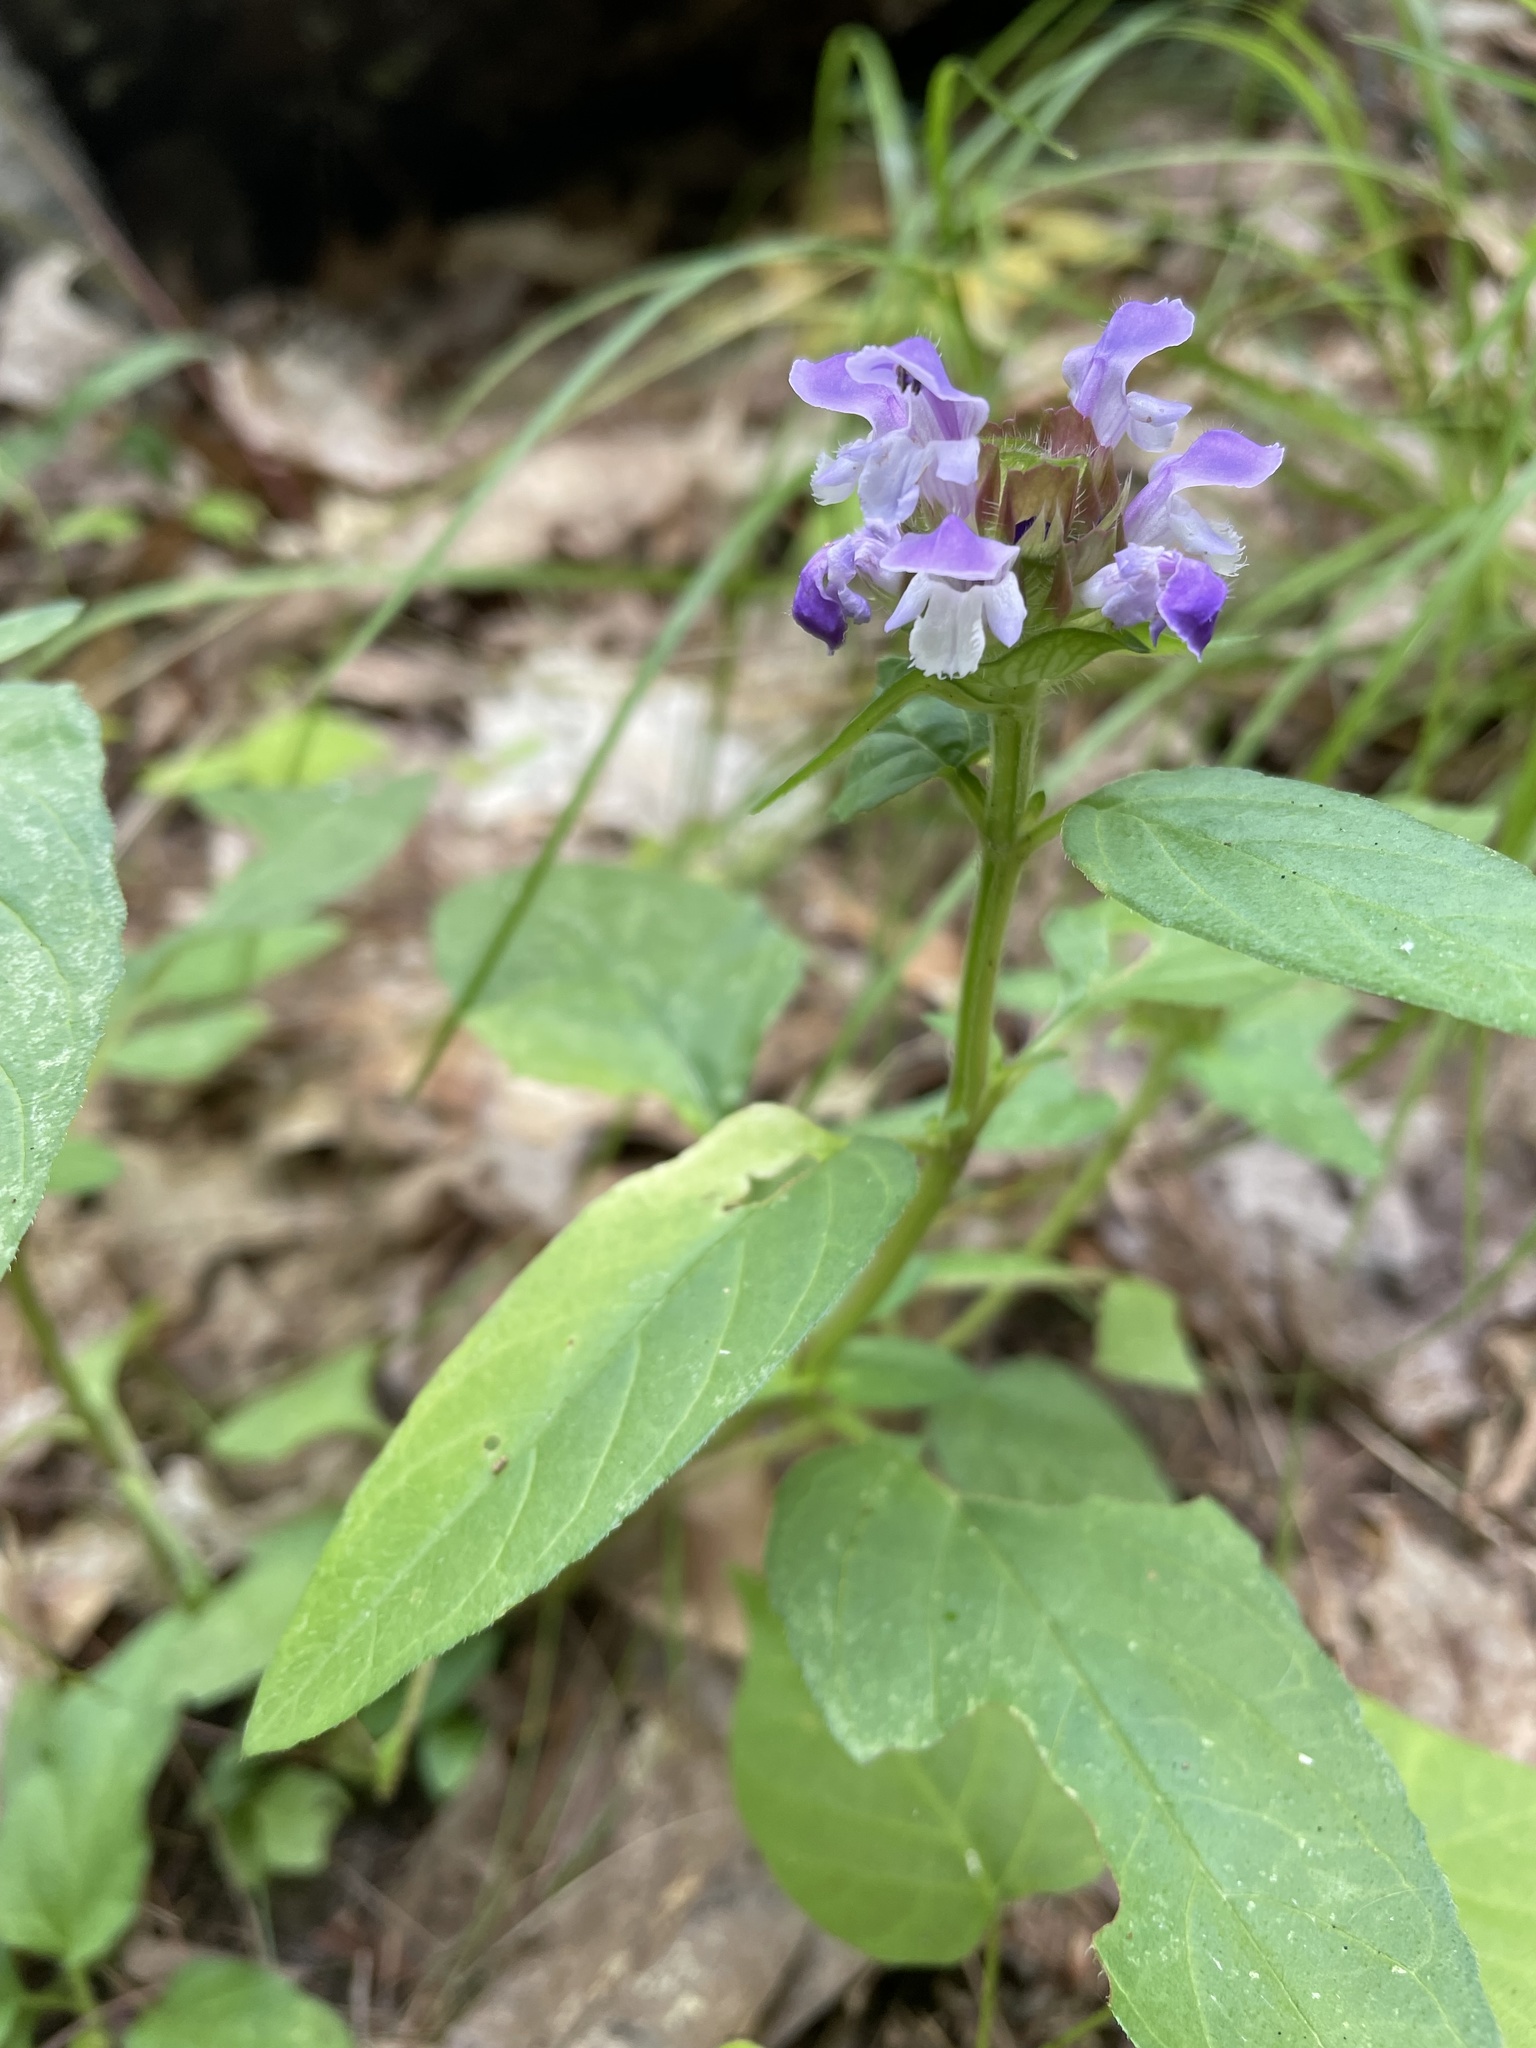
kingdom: Plantae
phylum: Tracheophyta
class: Magnoliopsida
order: Lamiales
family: Lamiaceae
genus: Prunella
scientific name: Prunella vulgaris
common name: Heal-all
